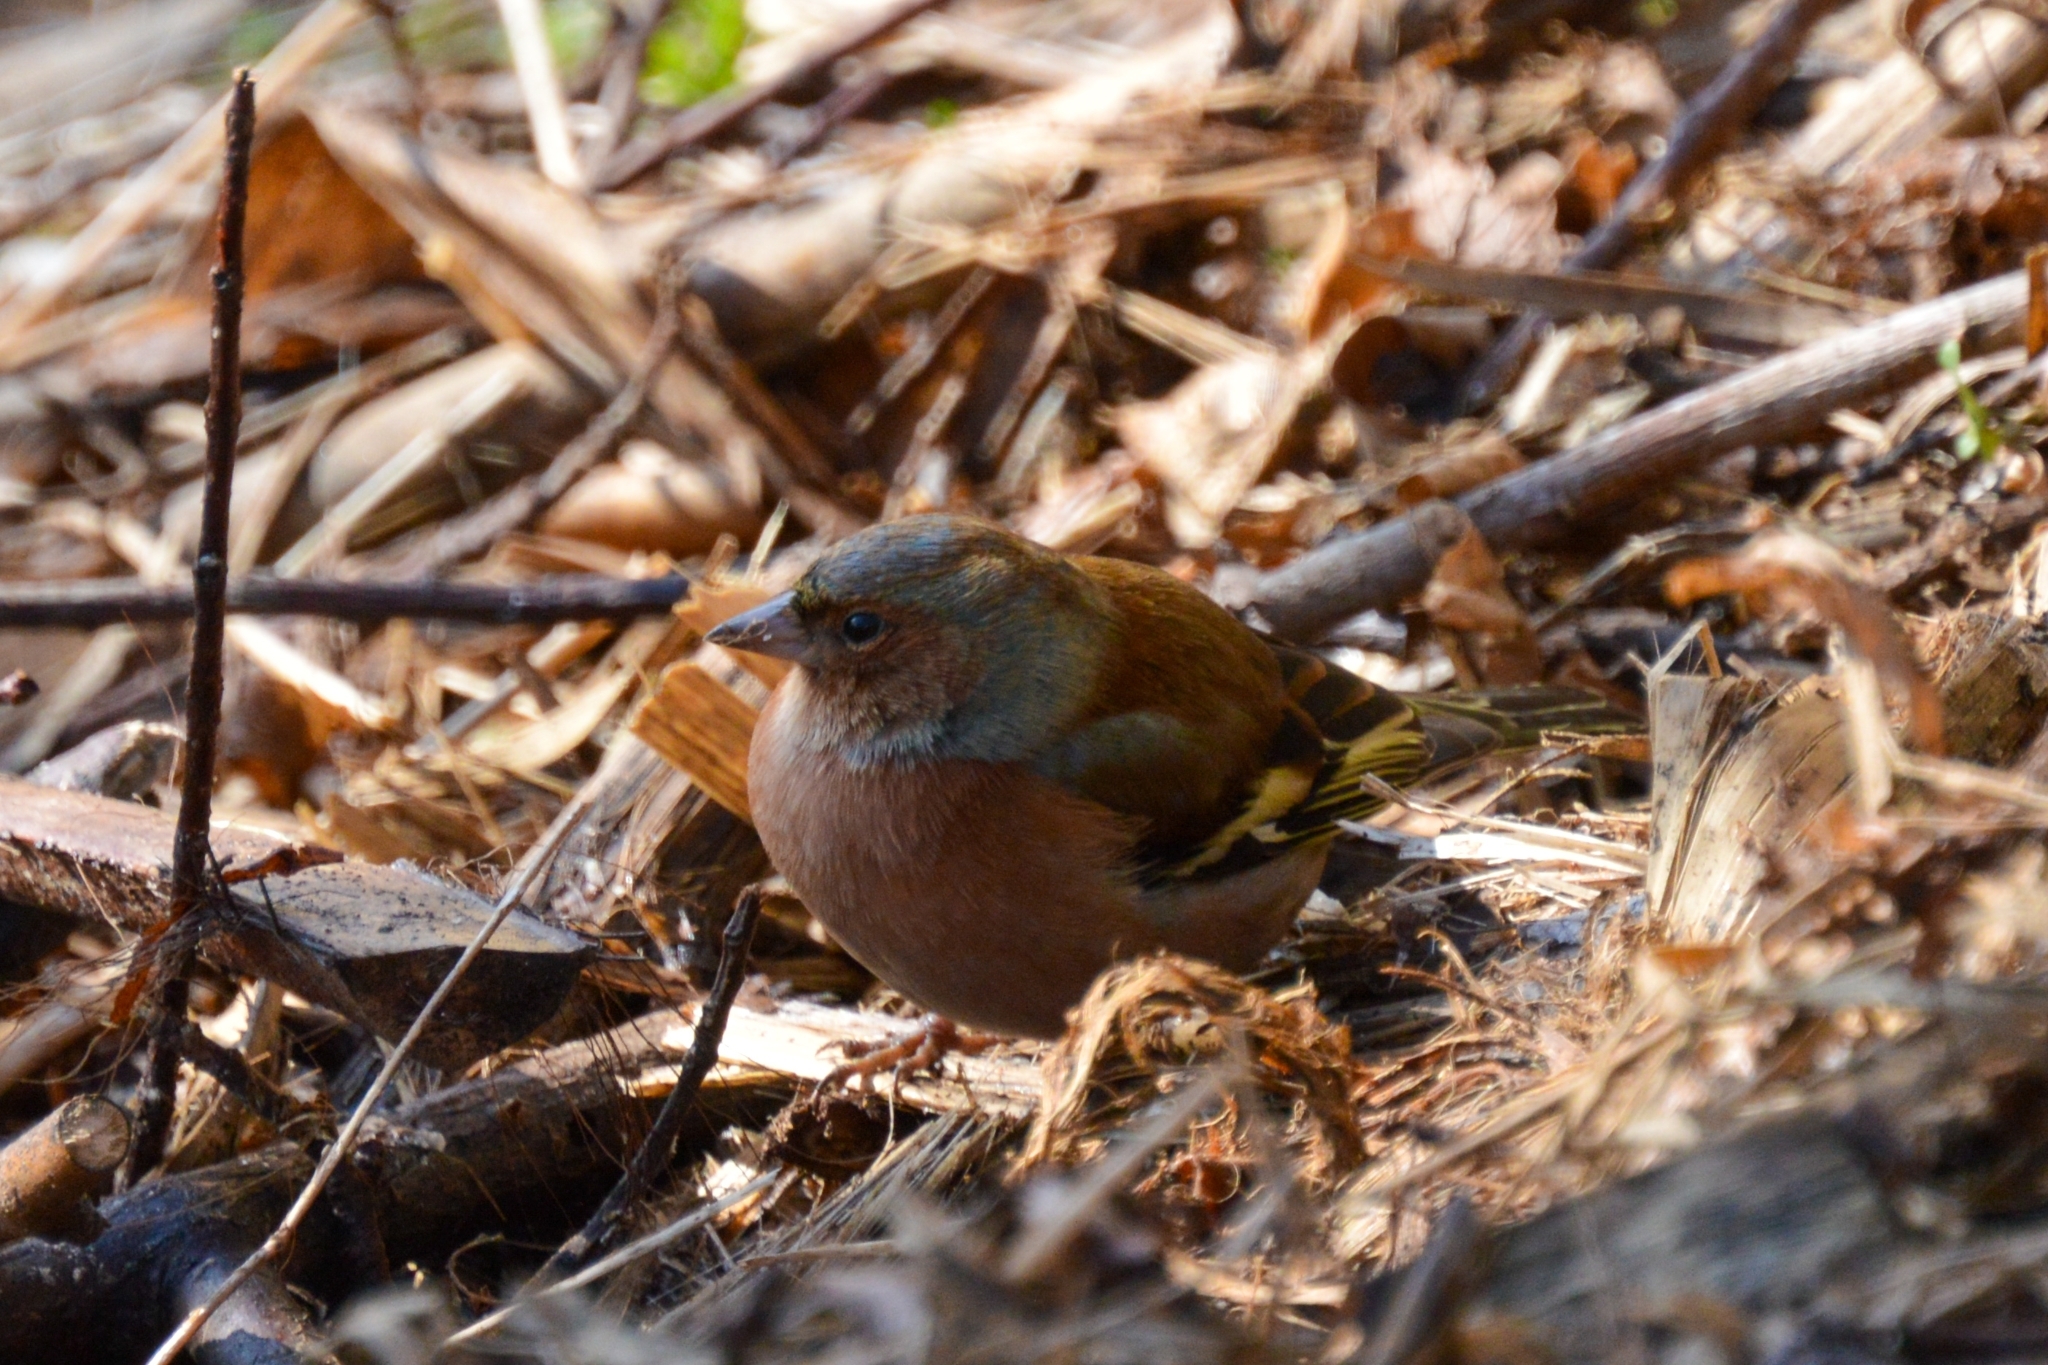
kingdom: Animalia
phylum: Chordata
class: Aves
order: Passeriformes
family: Fringillidae
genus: Fringilla
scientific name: Fringilla coelebs
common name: Common chaffinch
